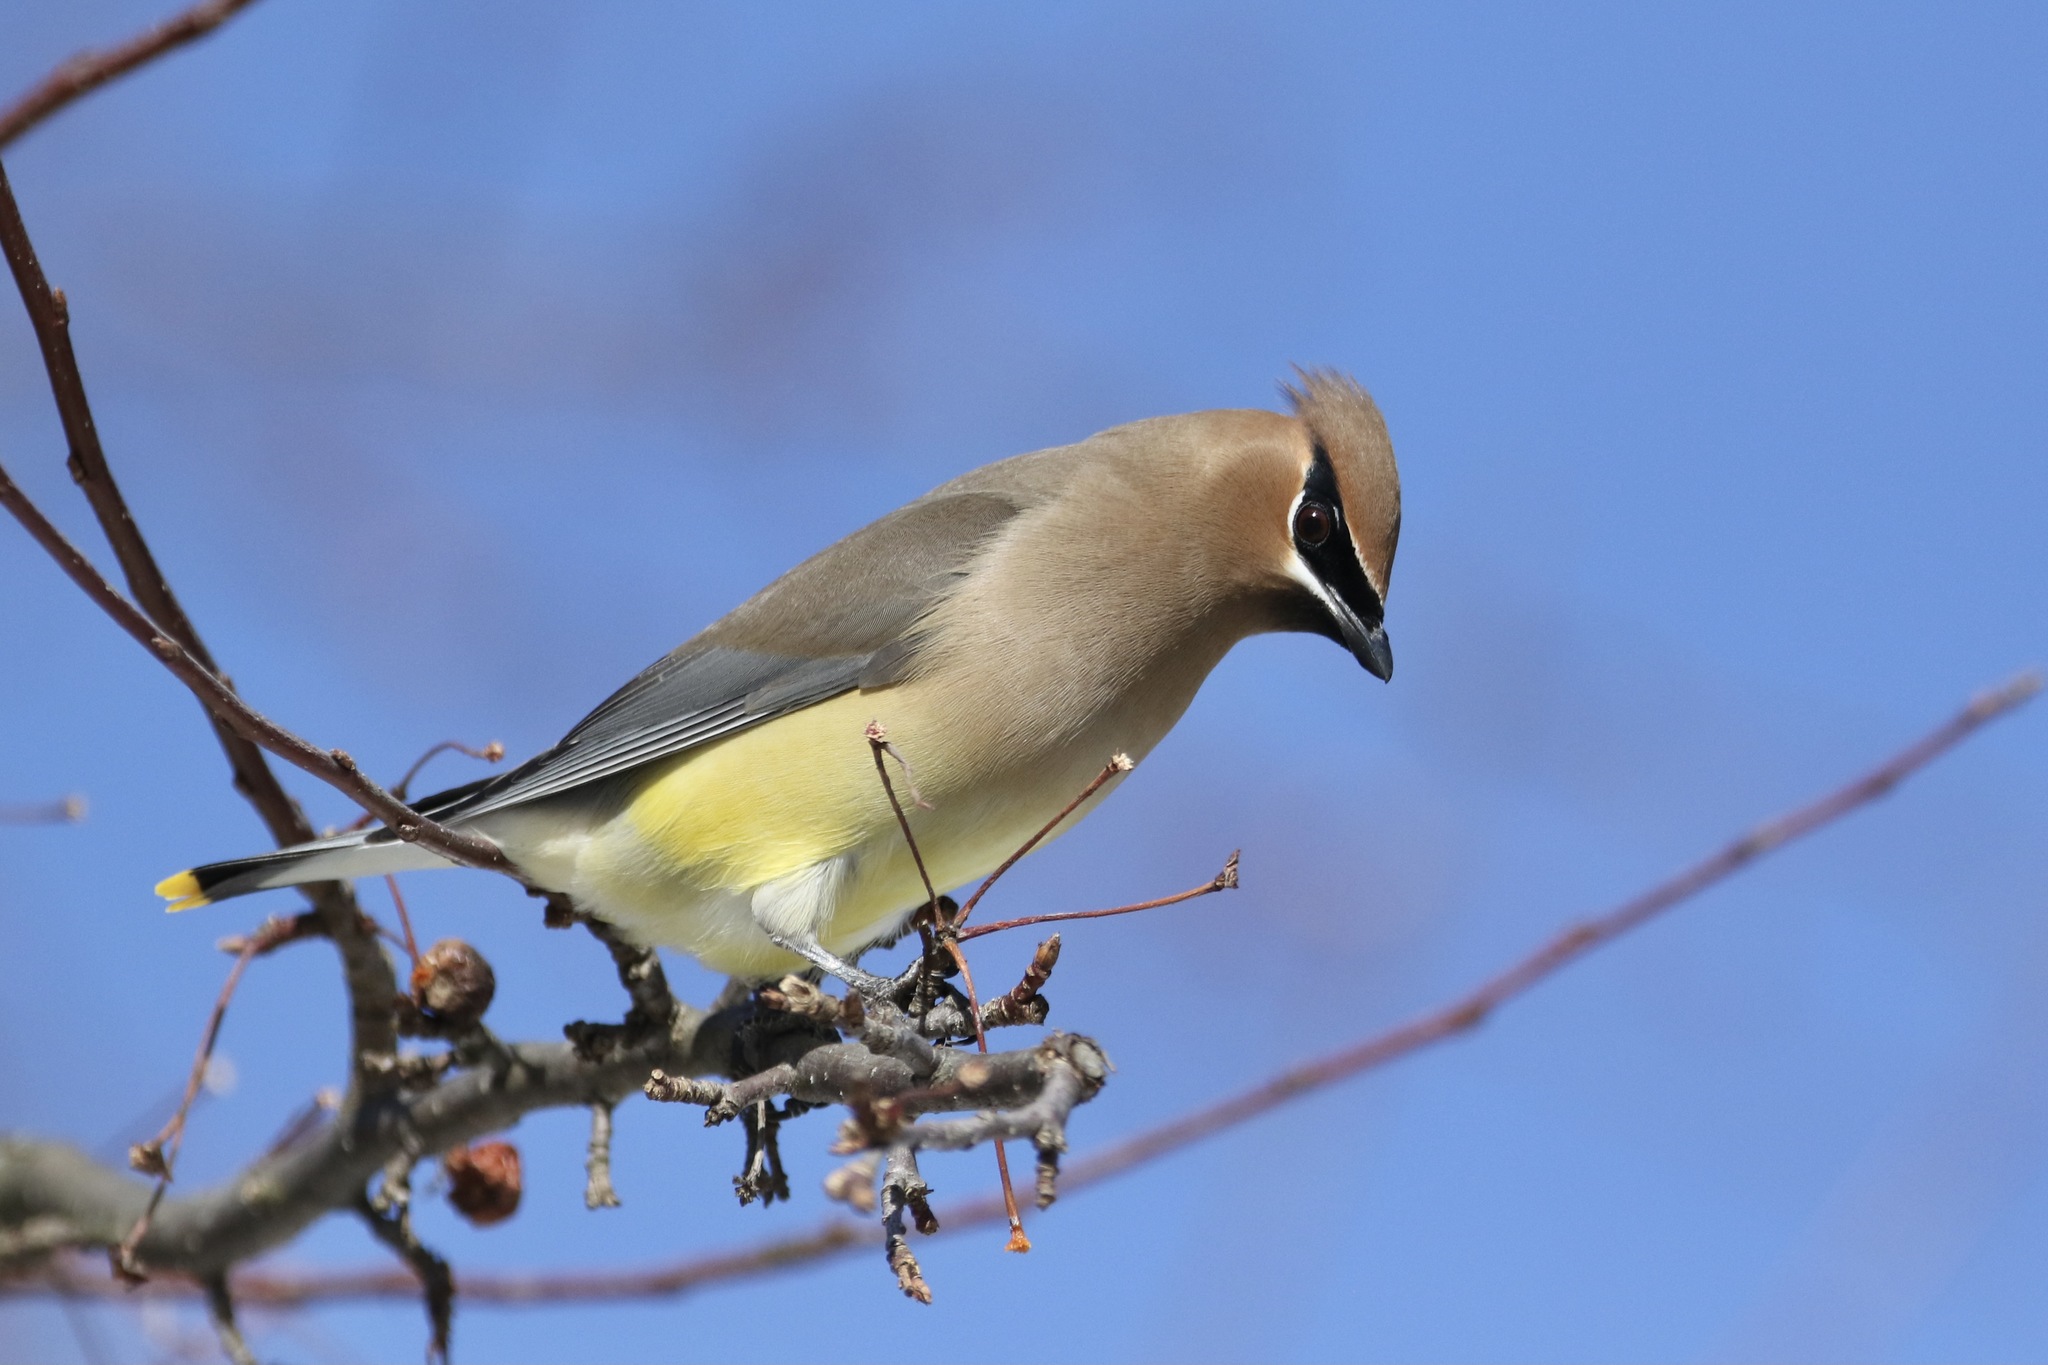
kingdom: Animalia
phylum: Chordata
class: Aves
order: Passeriformes
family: Bombycillidae
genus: Bombycilla
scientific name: Bombycilla cedrorum
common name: Cedar waxwing
